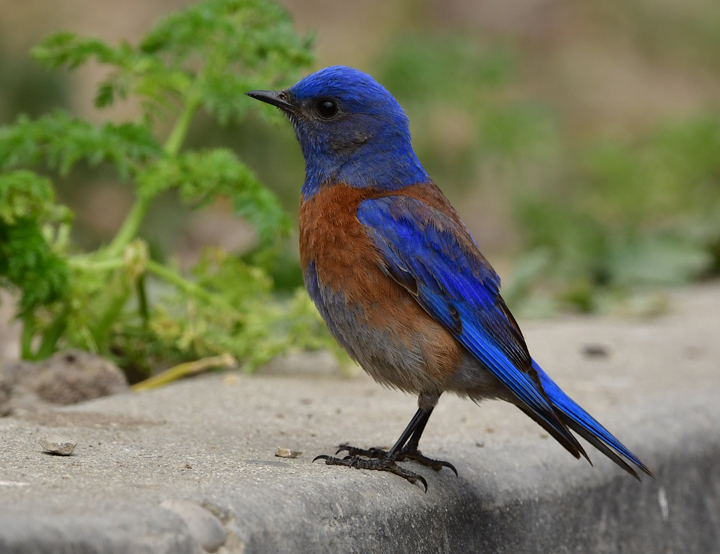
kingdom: Animalia
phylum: Chordata
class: Aves
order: Passeriformes
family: Turdidae
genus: Sialia
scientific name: Sialia mexicana
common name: Western bluebird
